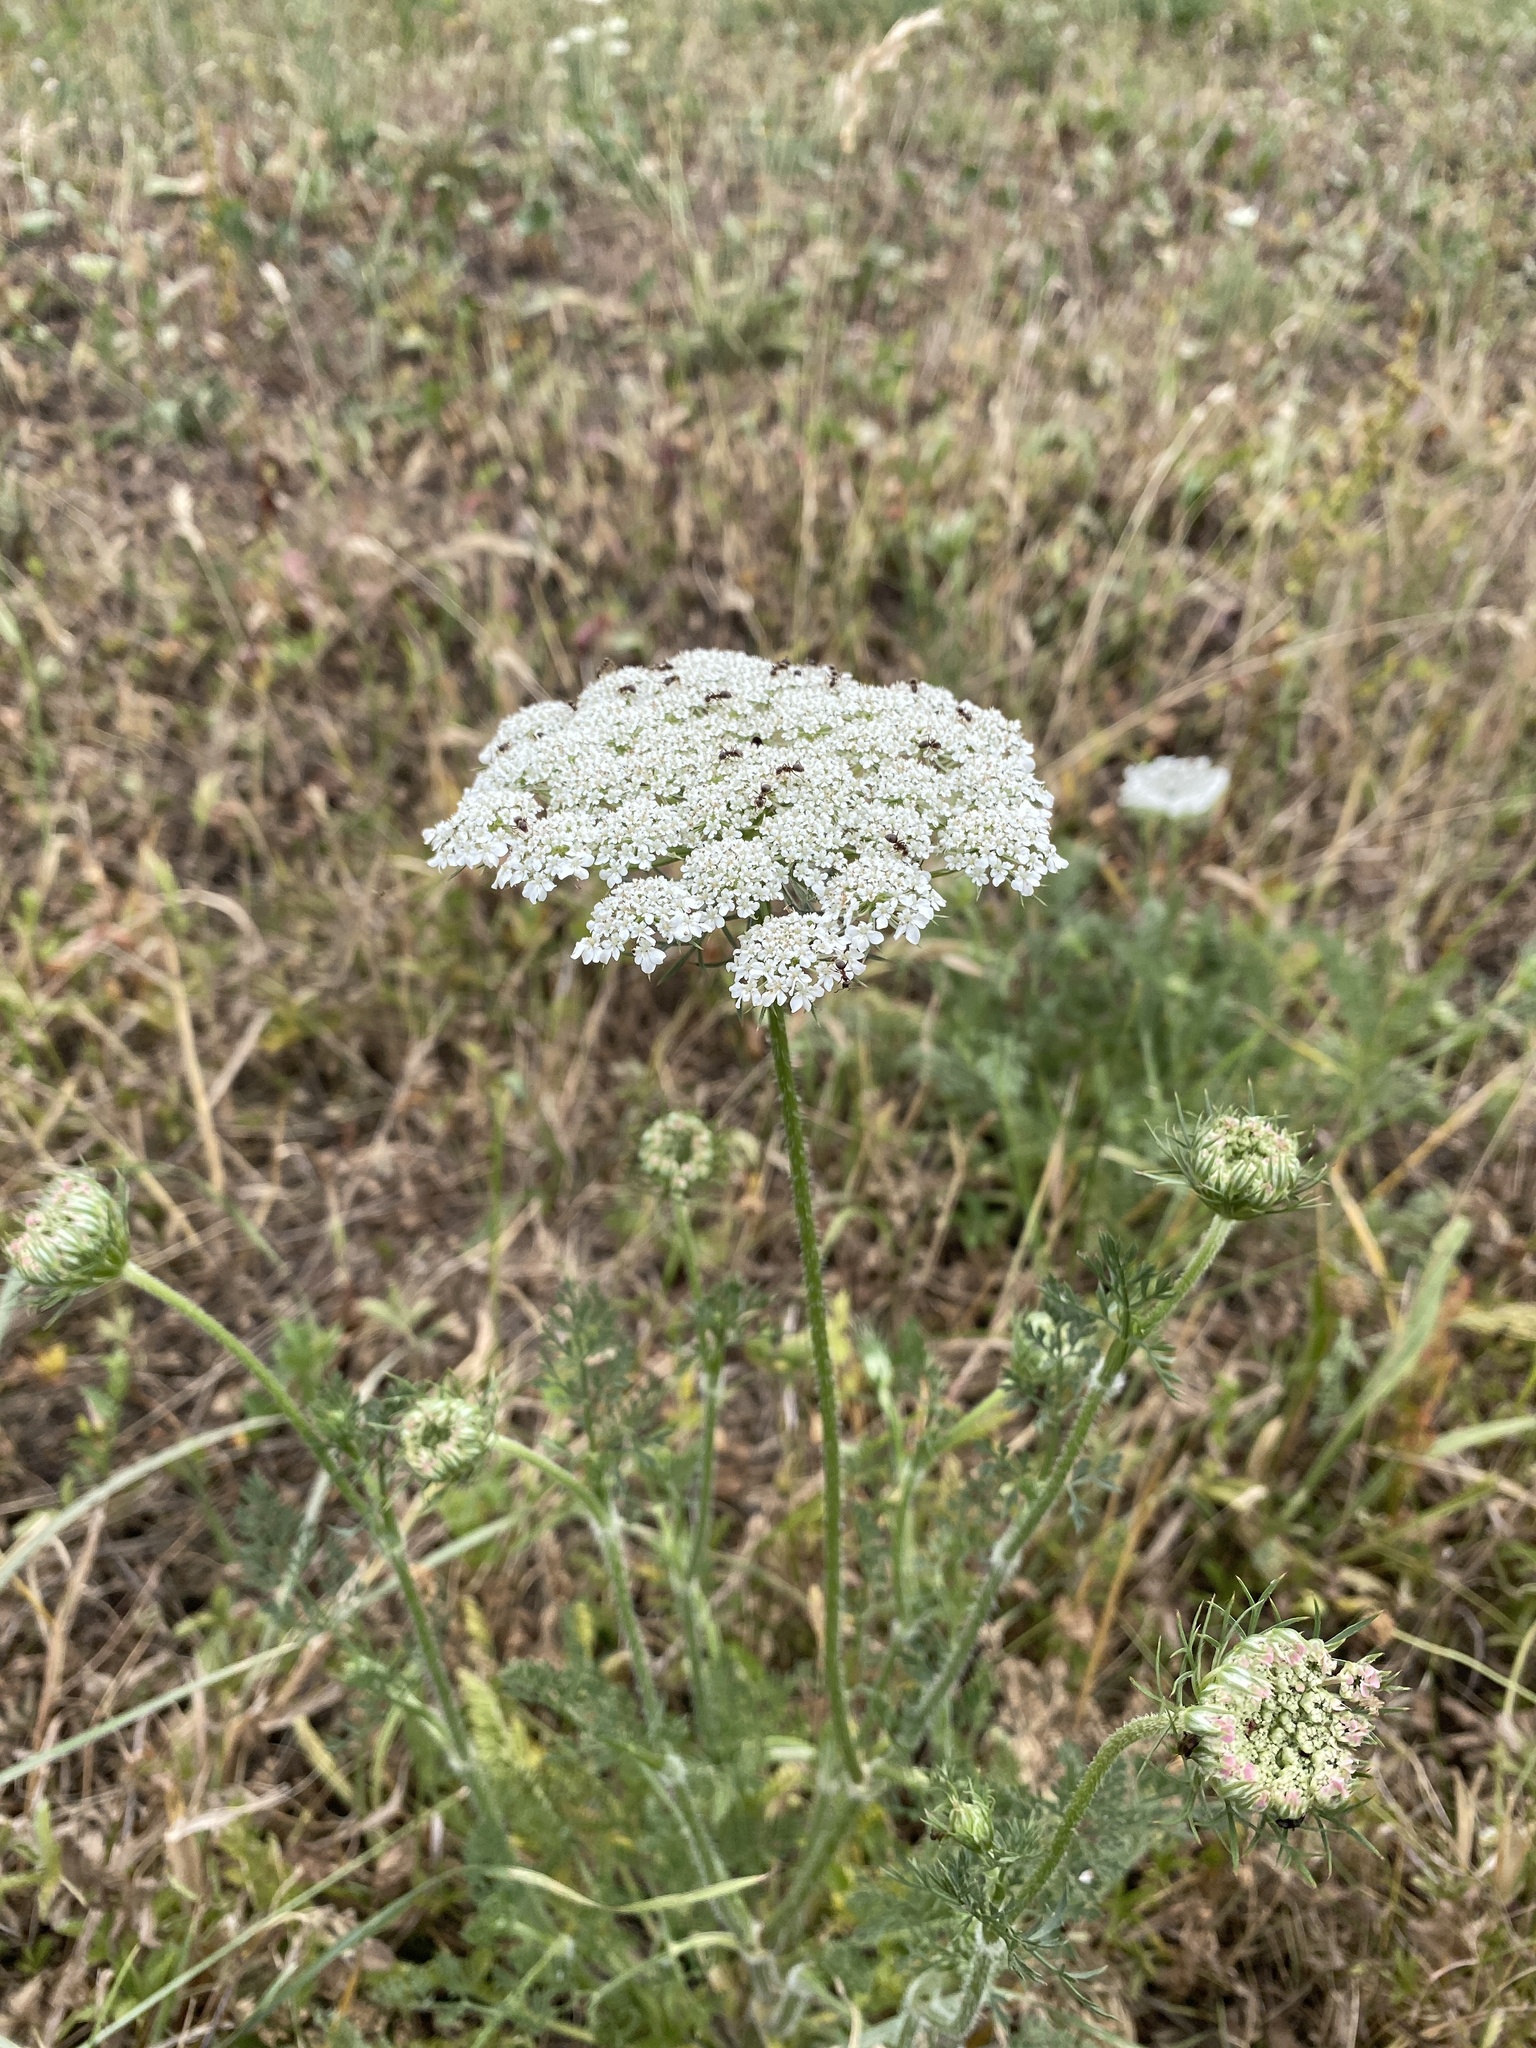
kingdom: Plantae
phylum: Tracheophyta
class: Magnoliopsida
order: Apiales
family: Apiaceae
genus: Daucus
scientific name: Daucus carota
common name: Wild carrot
